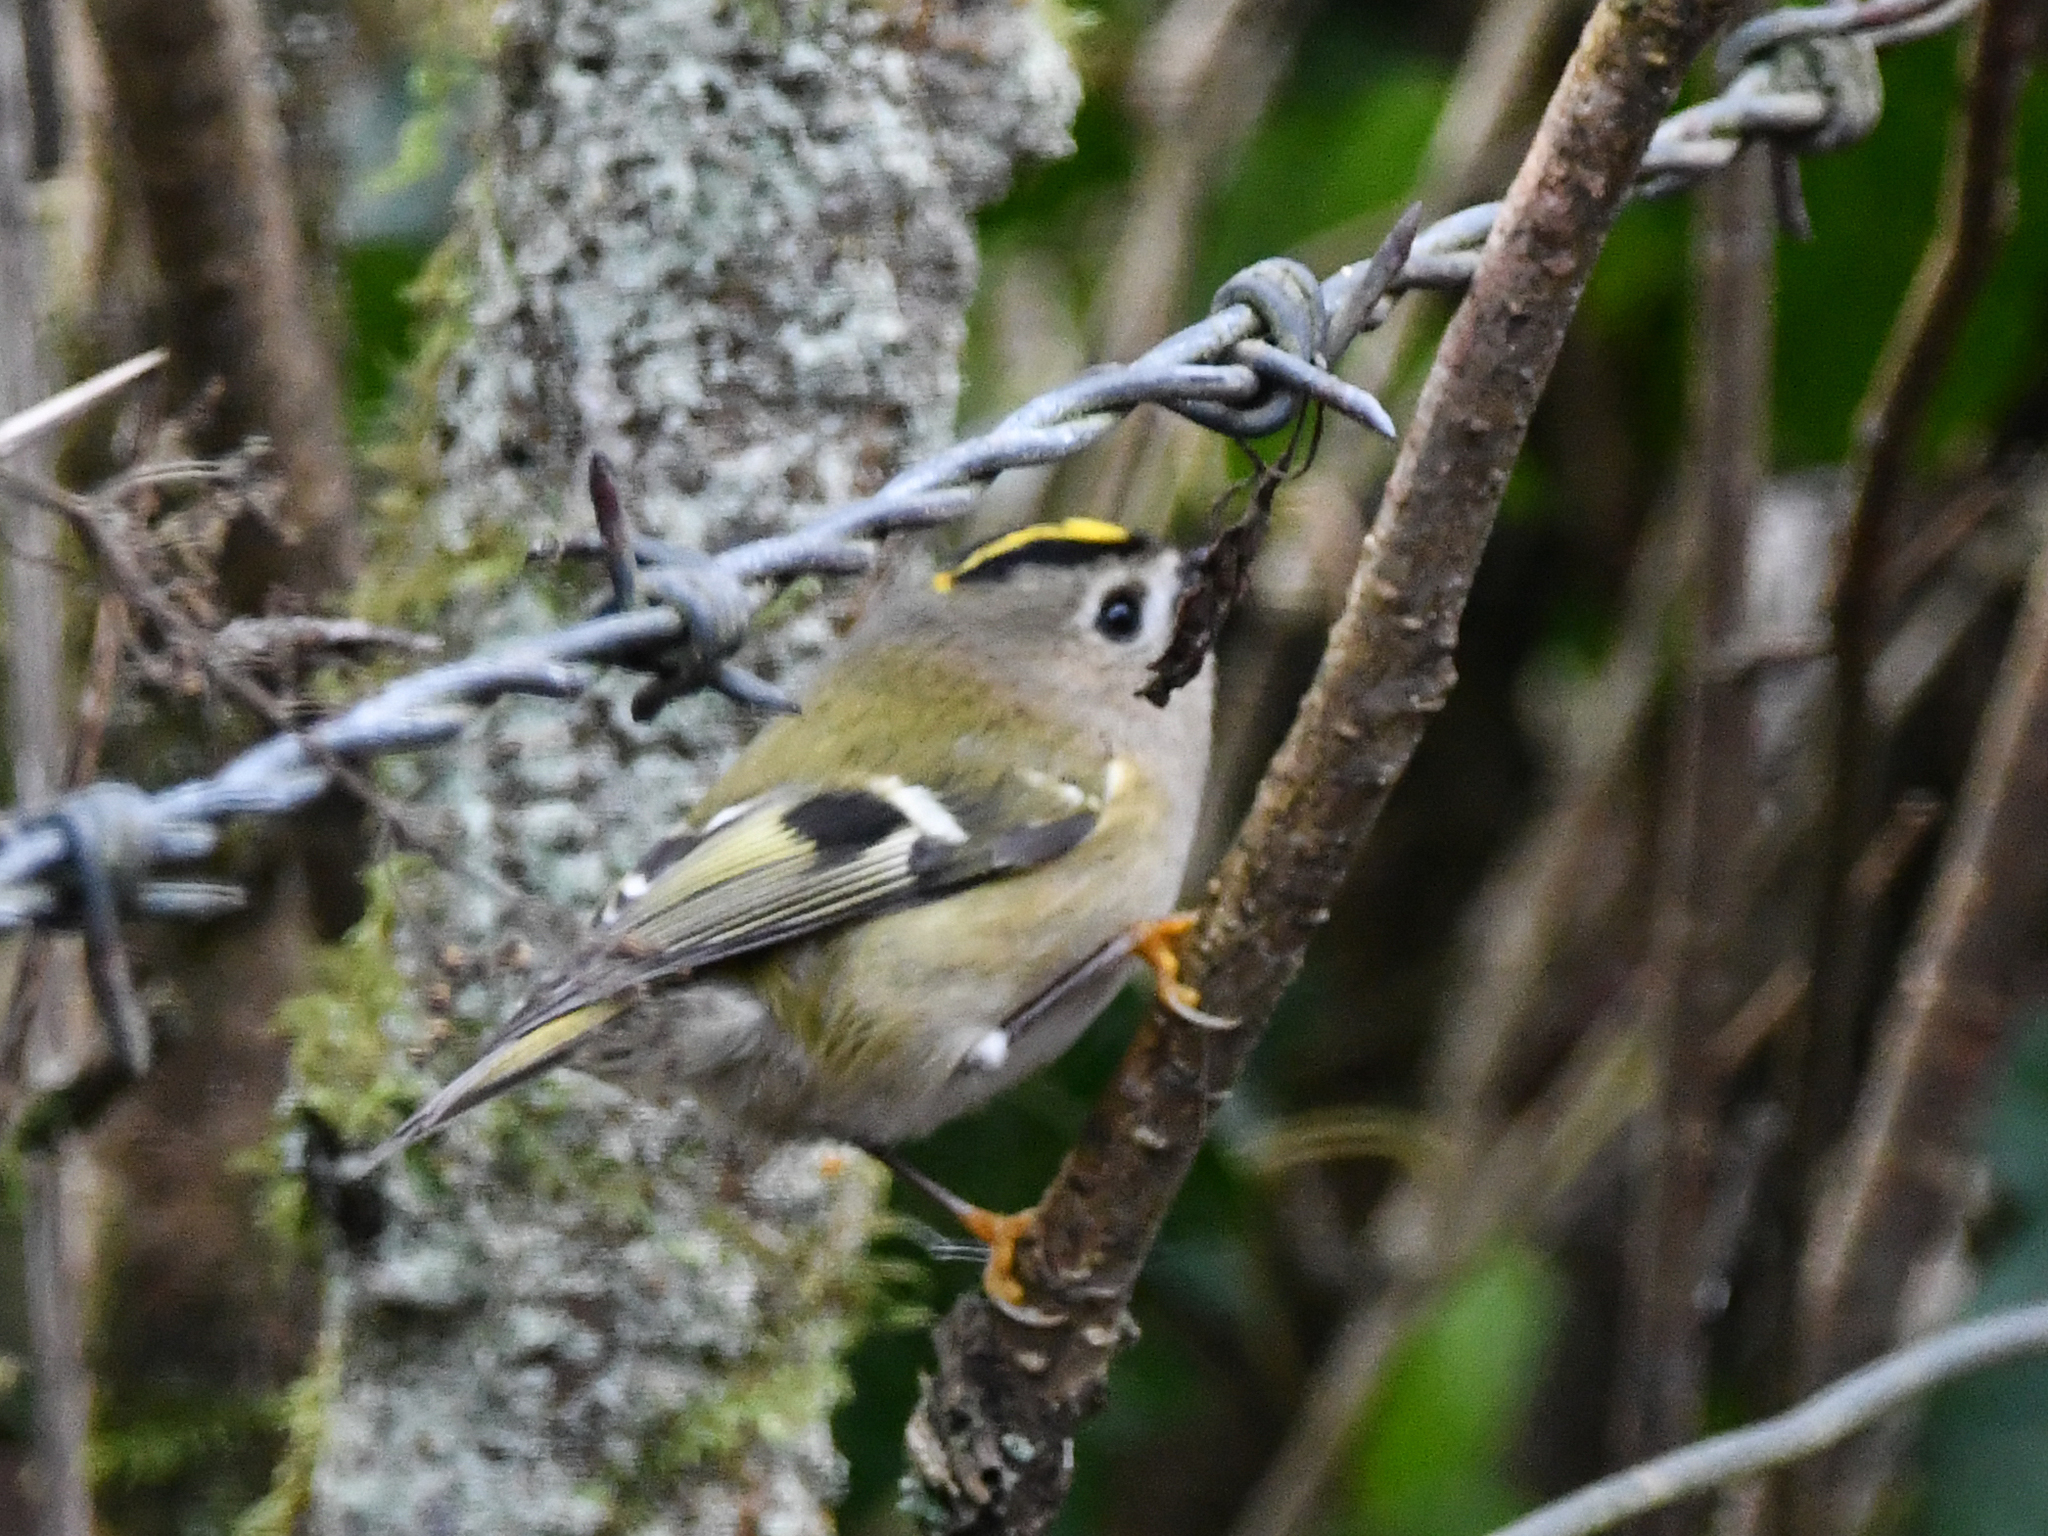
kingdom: Animalia
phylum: Chordata
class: Aves
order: Passeriformes
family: Regulidae
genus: Regulus
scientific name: Regulus regulus
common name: Goldcrest
